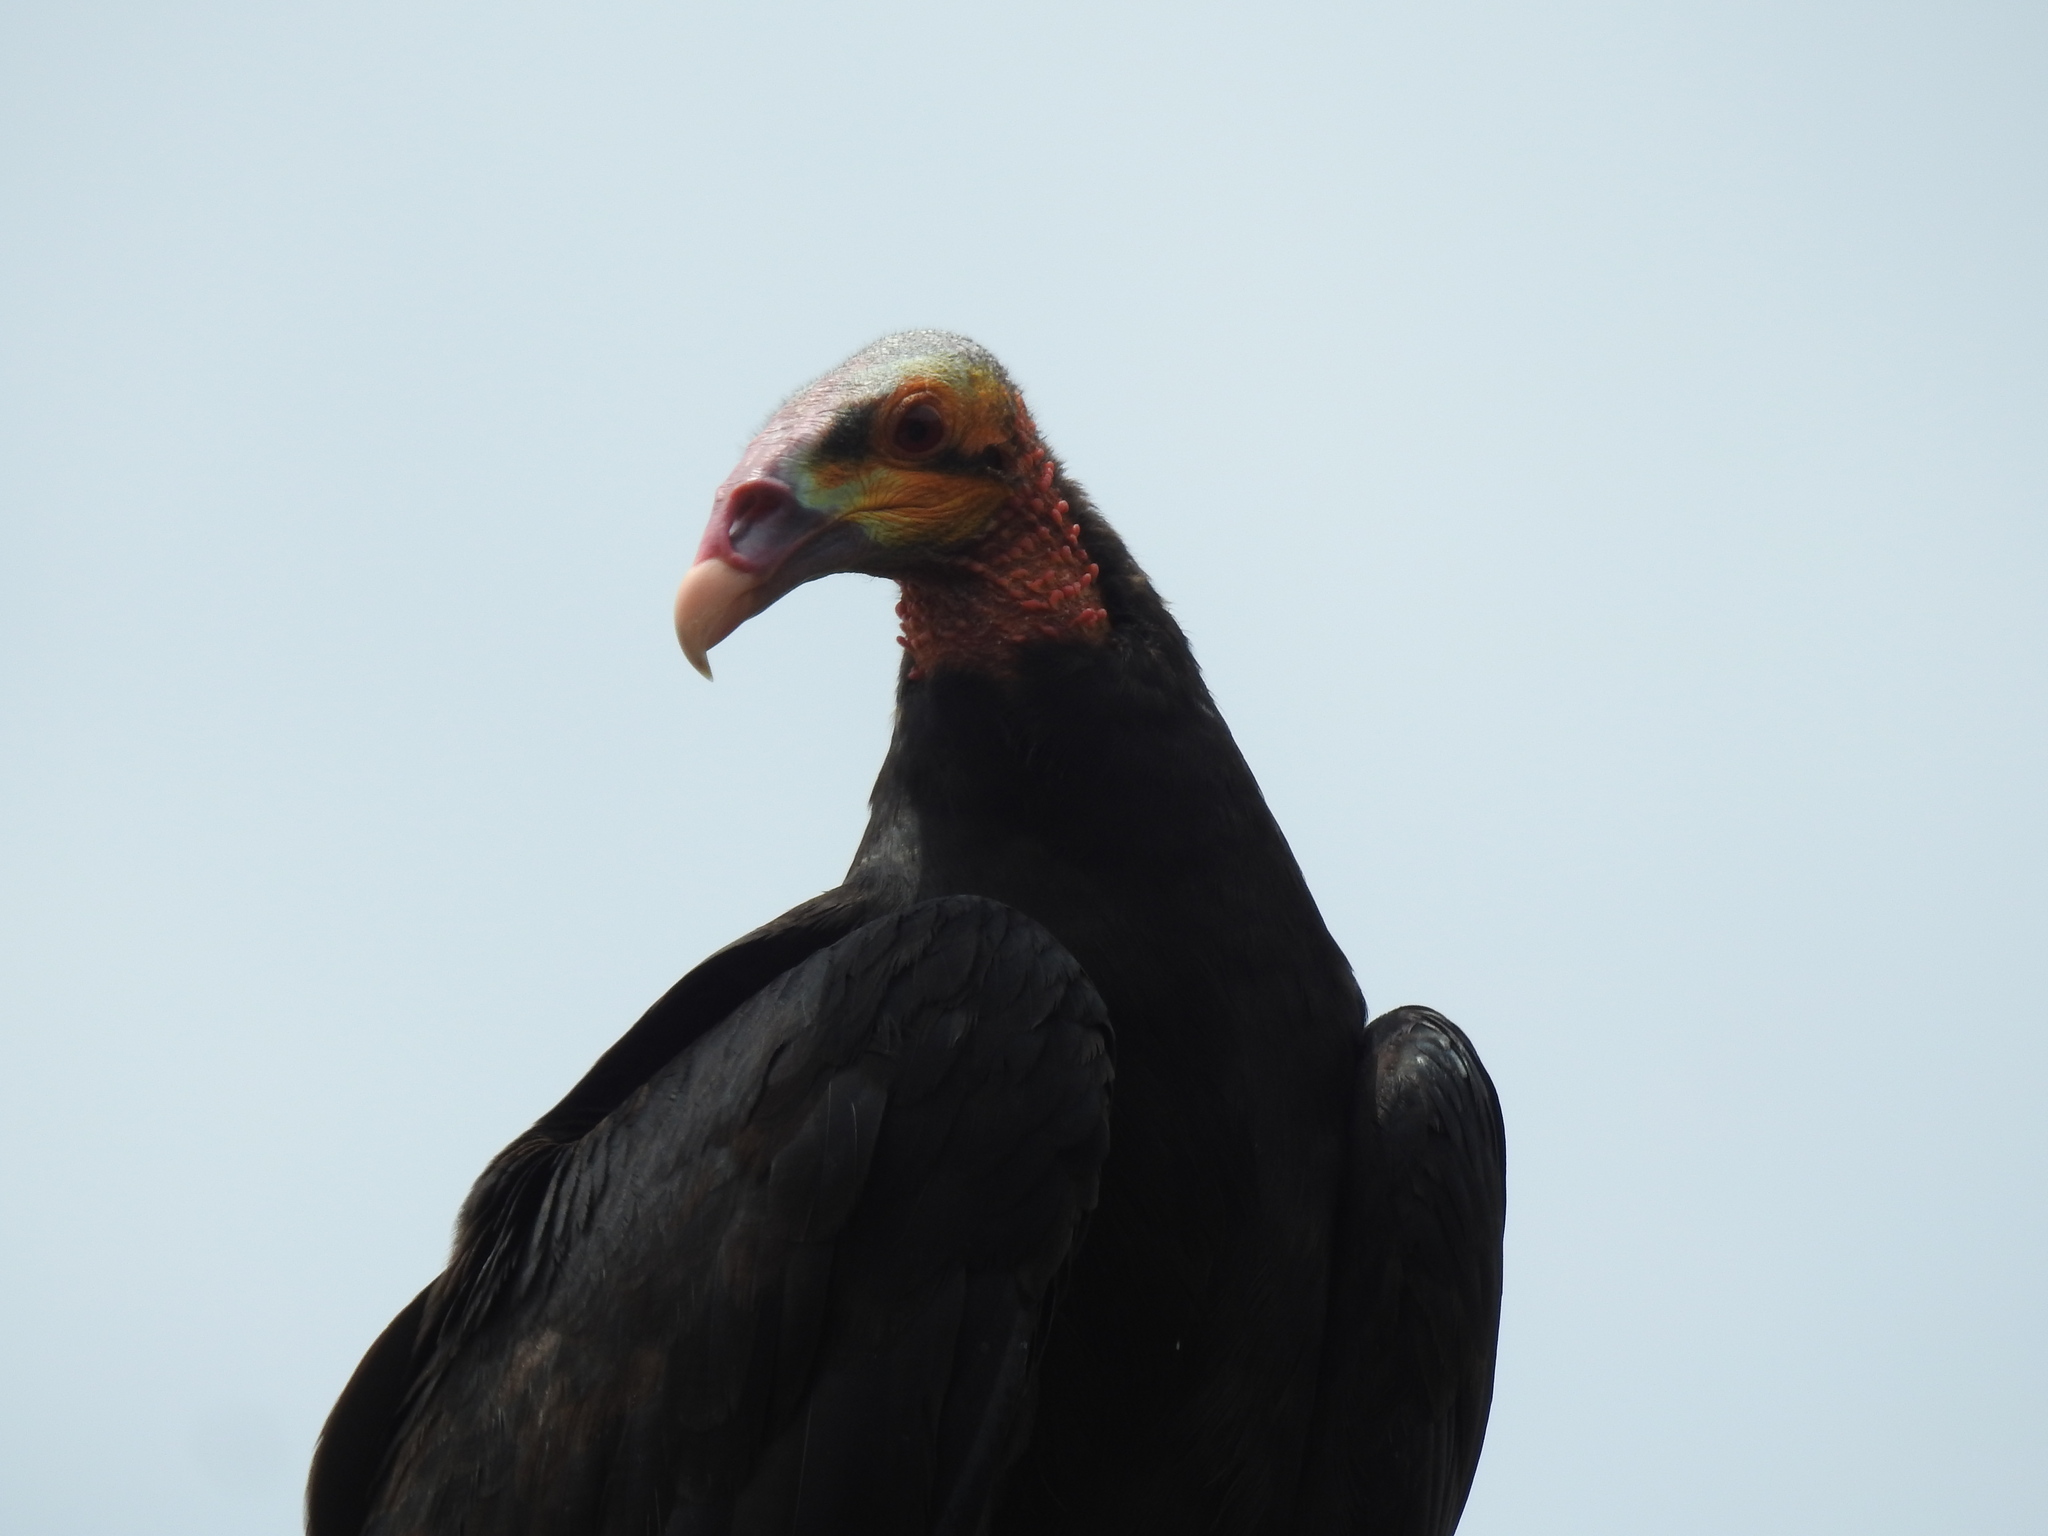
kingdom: Animalia
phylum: Chordata
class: Aves
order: Accipitriformes
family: Cathartidae
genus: Cathartes
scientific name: Cathartes burrovianus
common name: Lesser yellow-headed vulture
